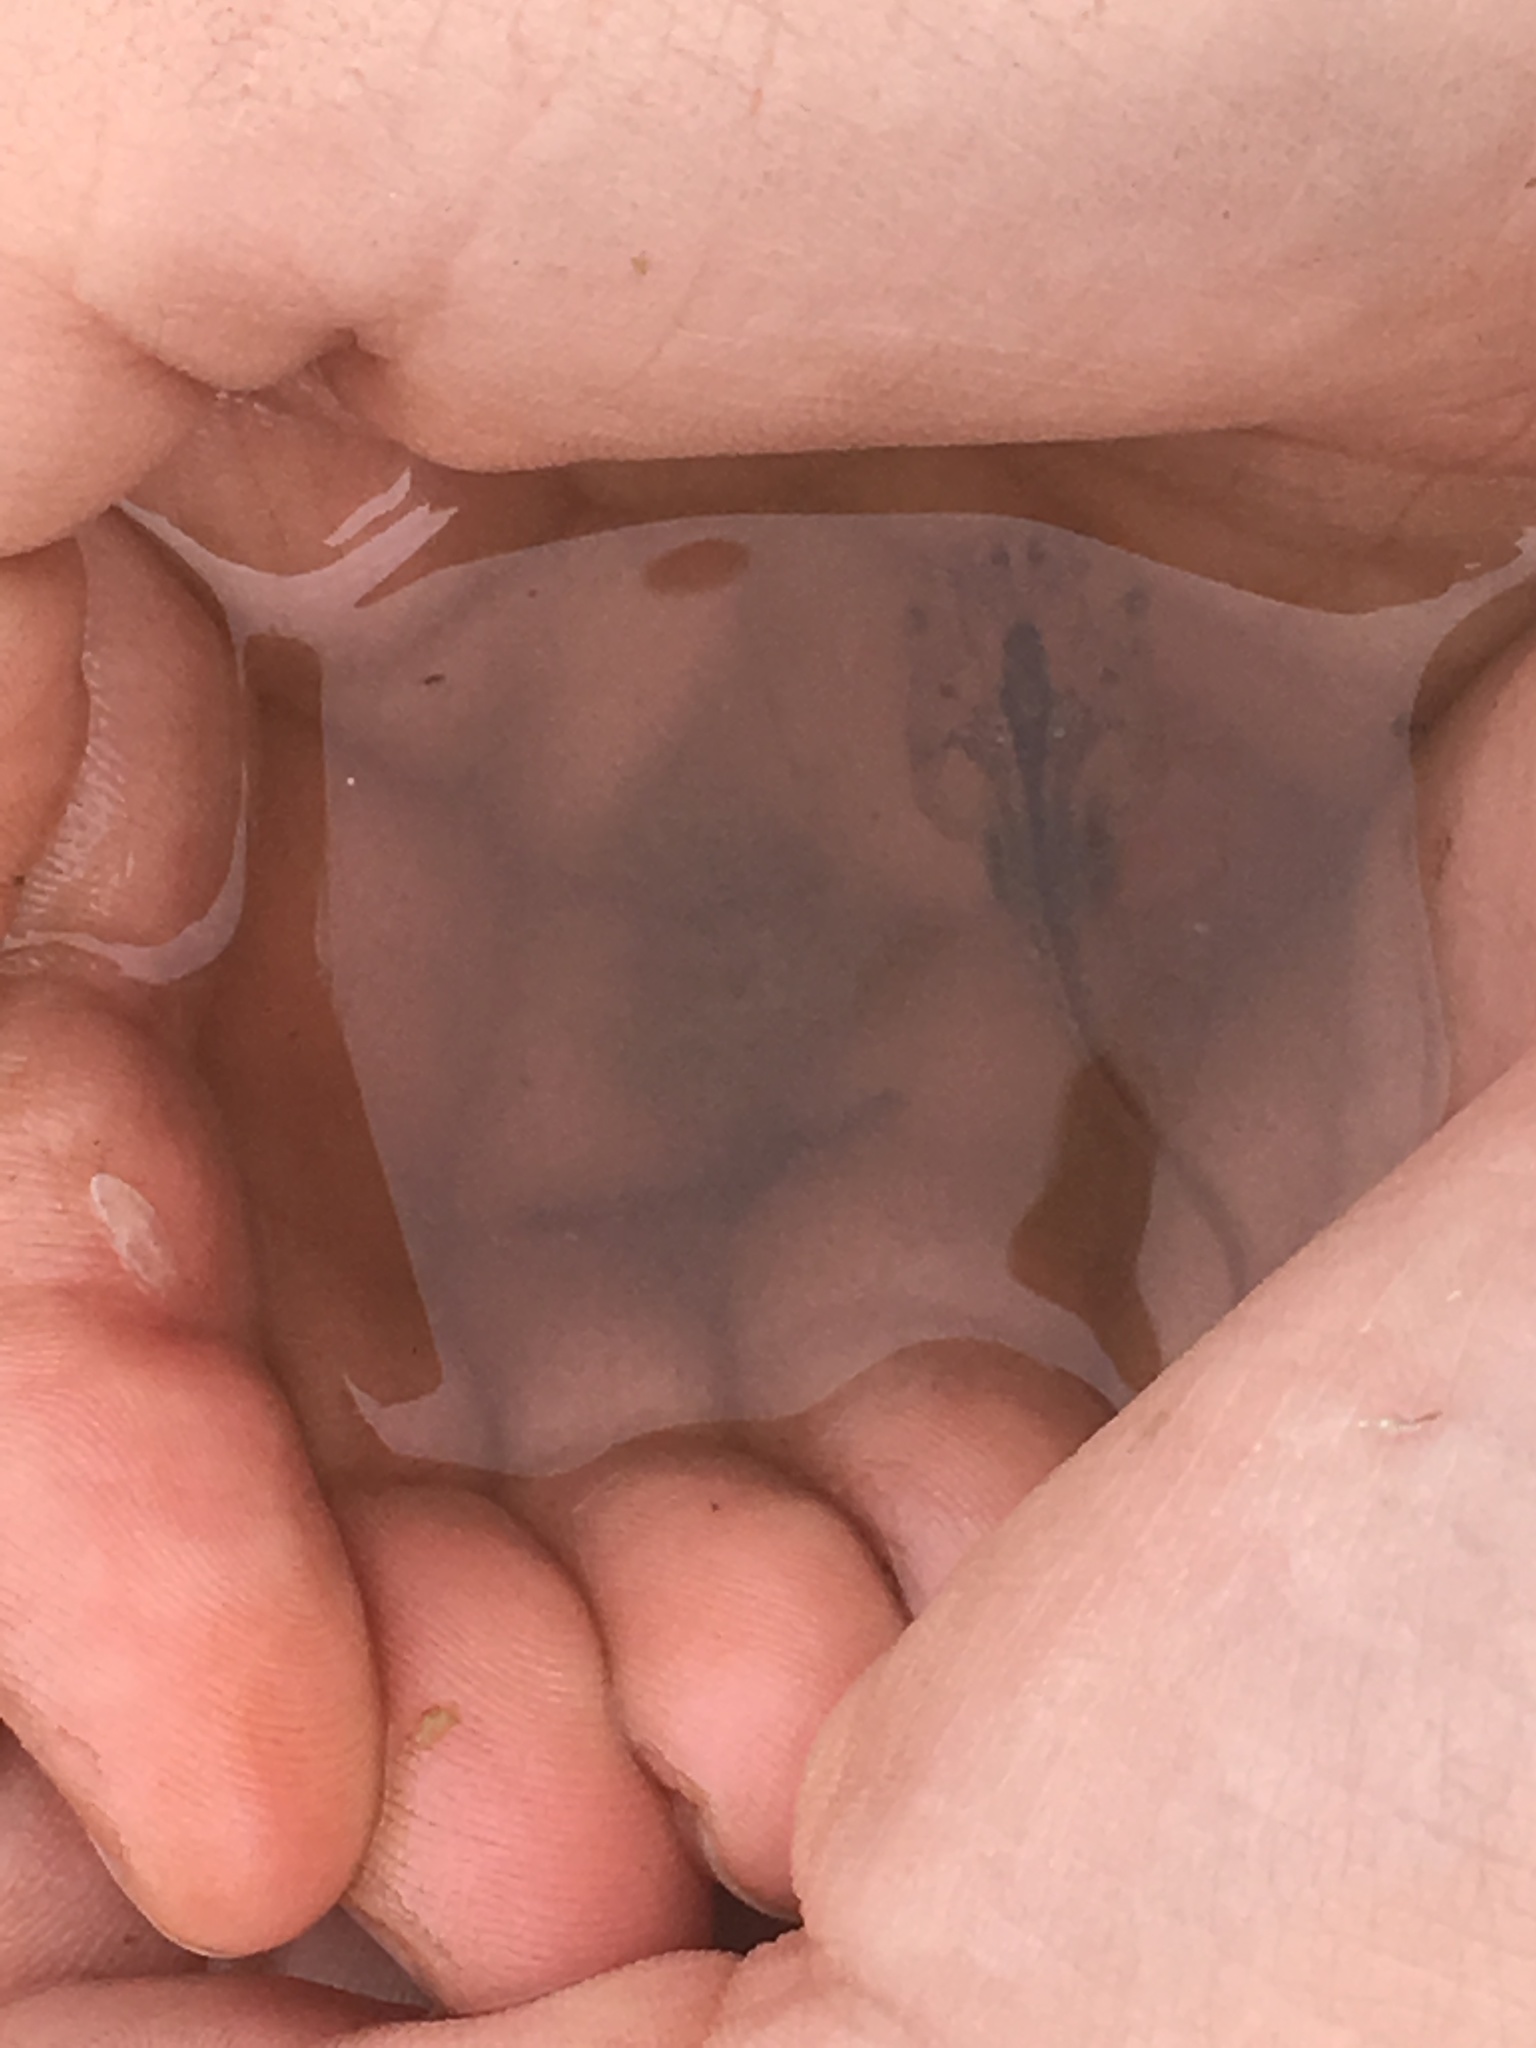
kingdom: Animalia
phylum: Chordata
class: Amphibia
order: Anura
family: Pipidae
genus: Xenopus
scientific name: Xenopus laevis
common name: African clawed frog
